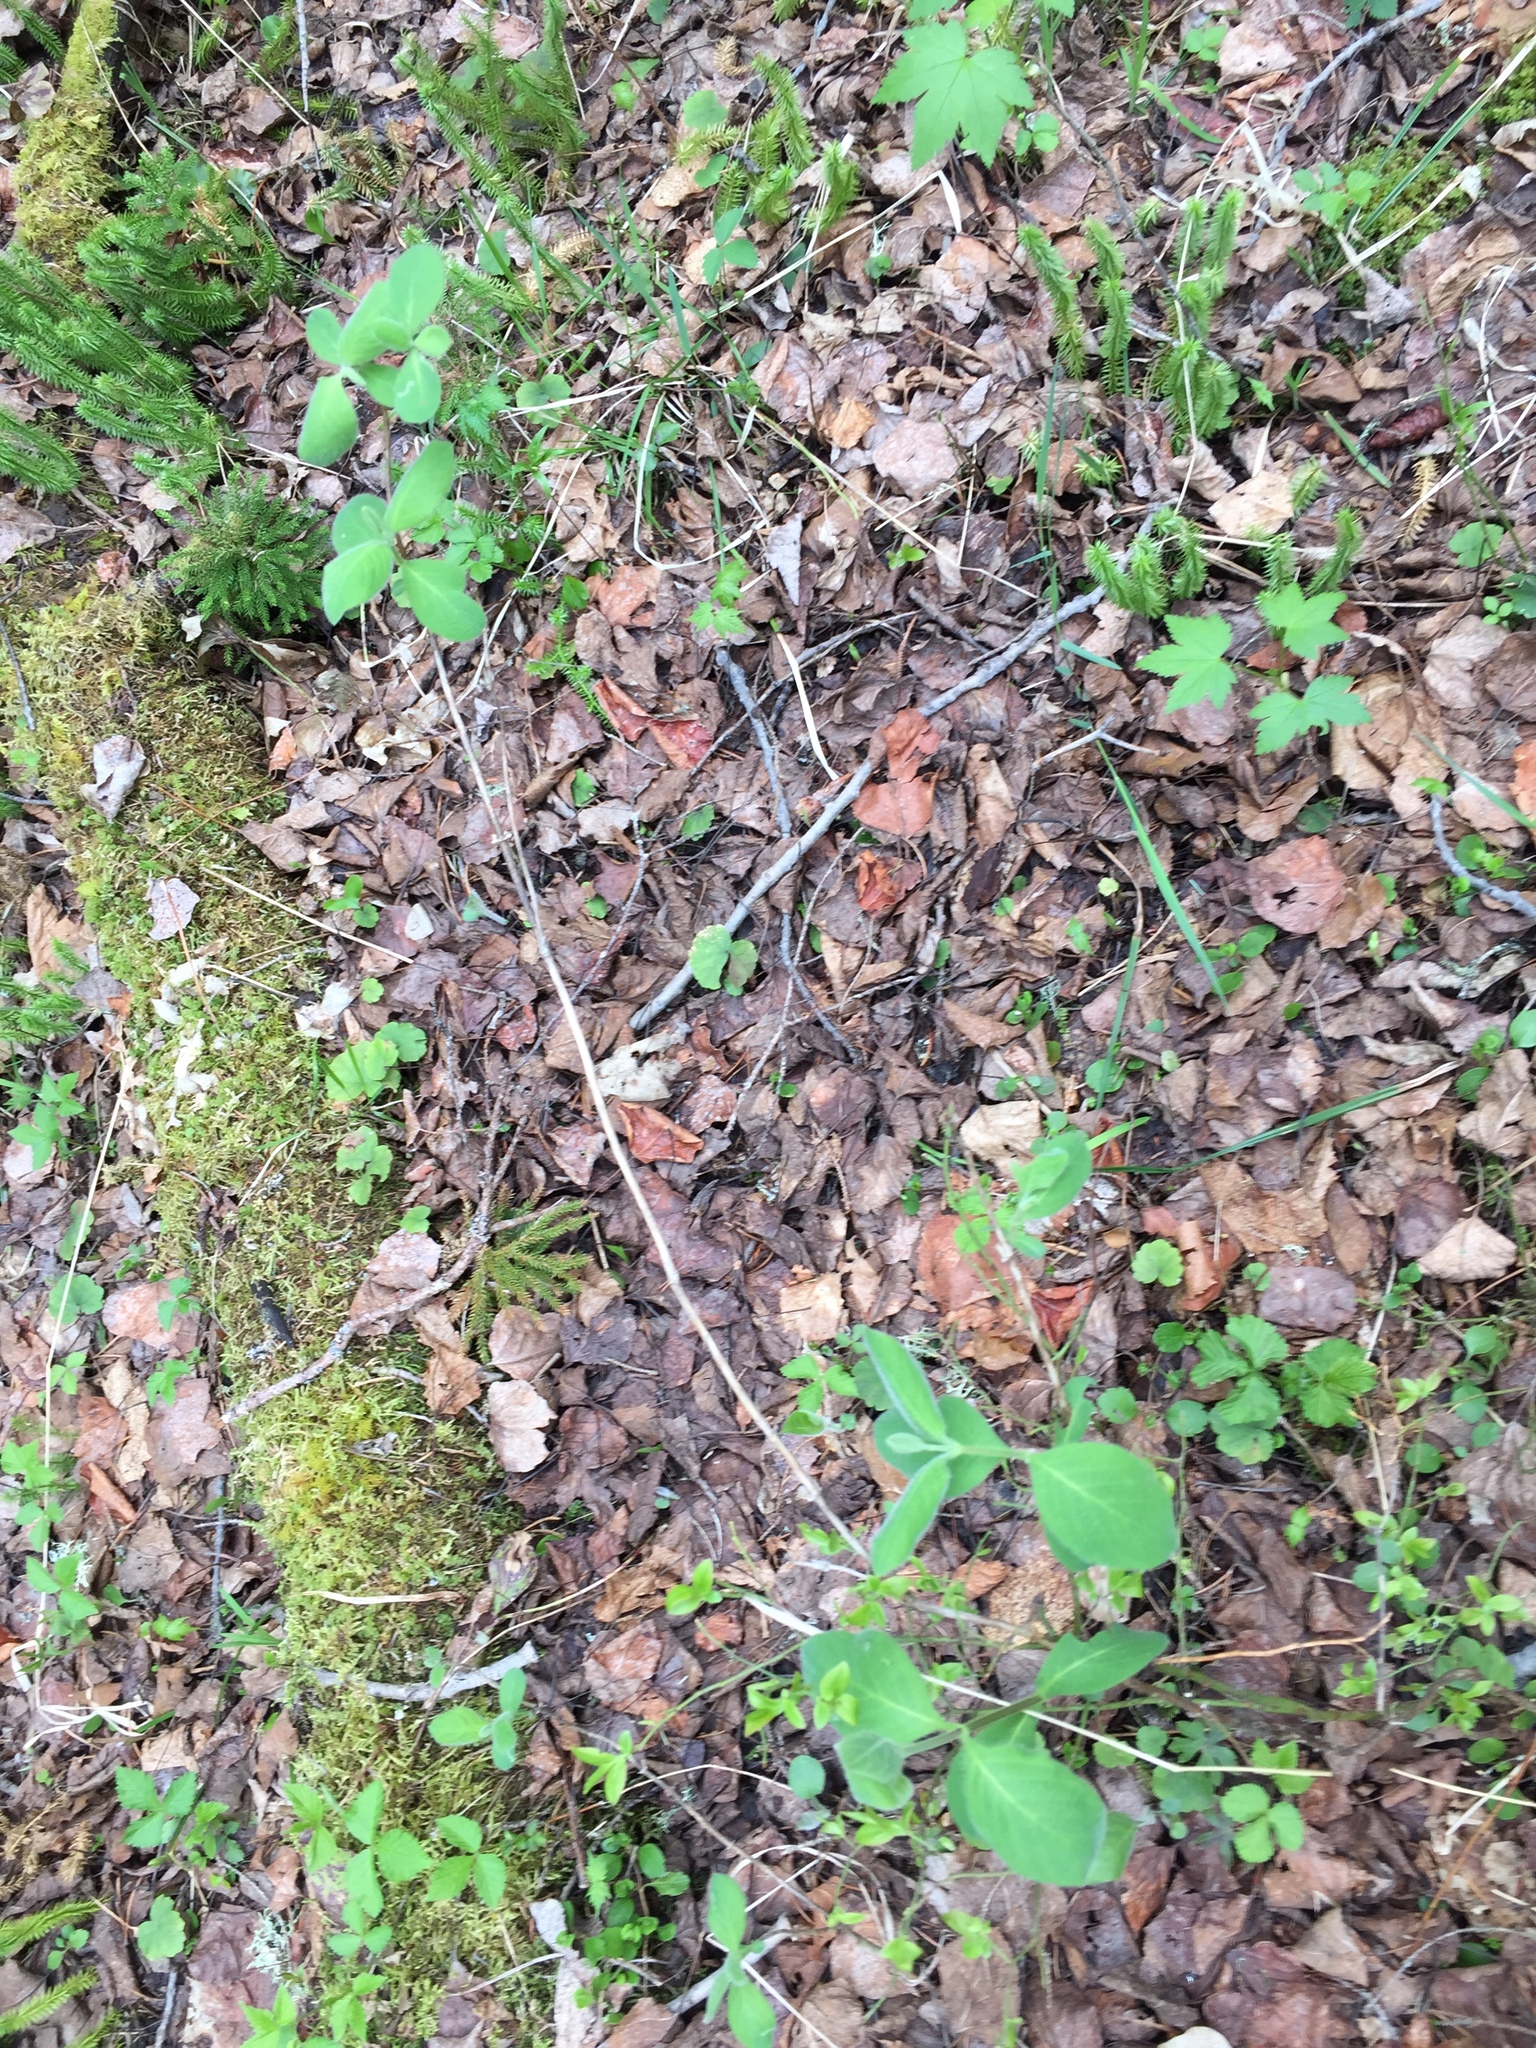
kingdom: Plantae
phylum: Tracheophyta
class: Magnoliopsida
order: Dipsacales
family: Caprifoliaceae
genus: Lonicera
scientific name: Lonicera hirsuta
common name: Hairy honeysuckle
